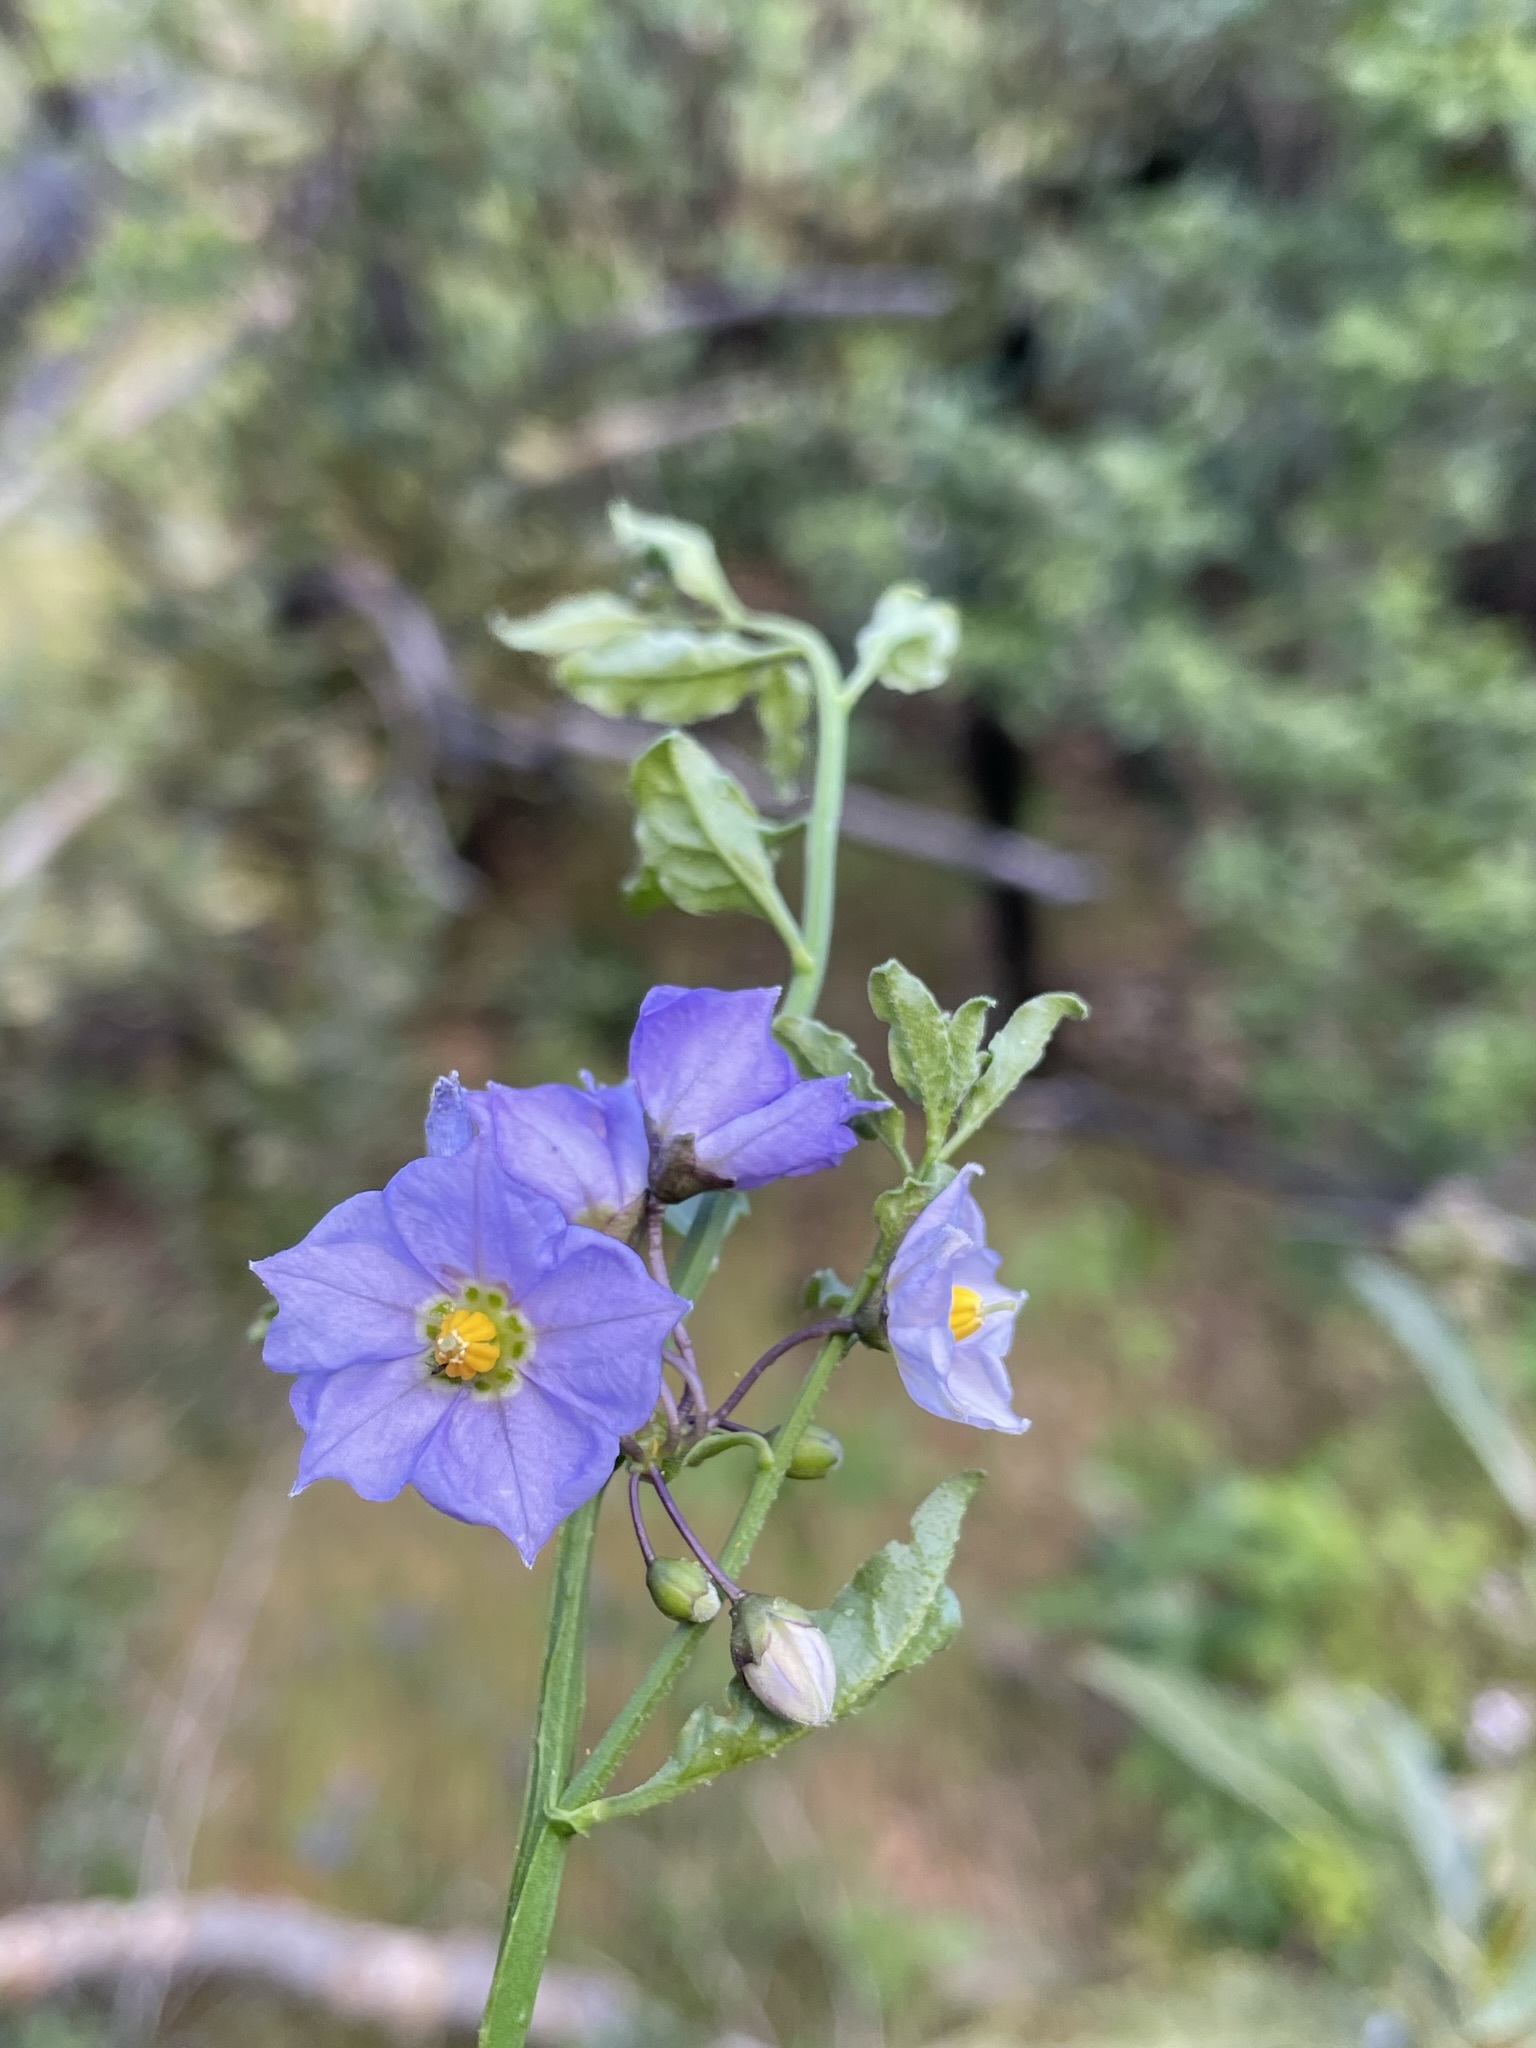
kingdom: Plantae
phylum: Tracheophyta
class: Magnoliopsida
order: Solanales
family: Solanaceae
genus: Solanum
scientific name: Solanum umbelliferum
